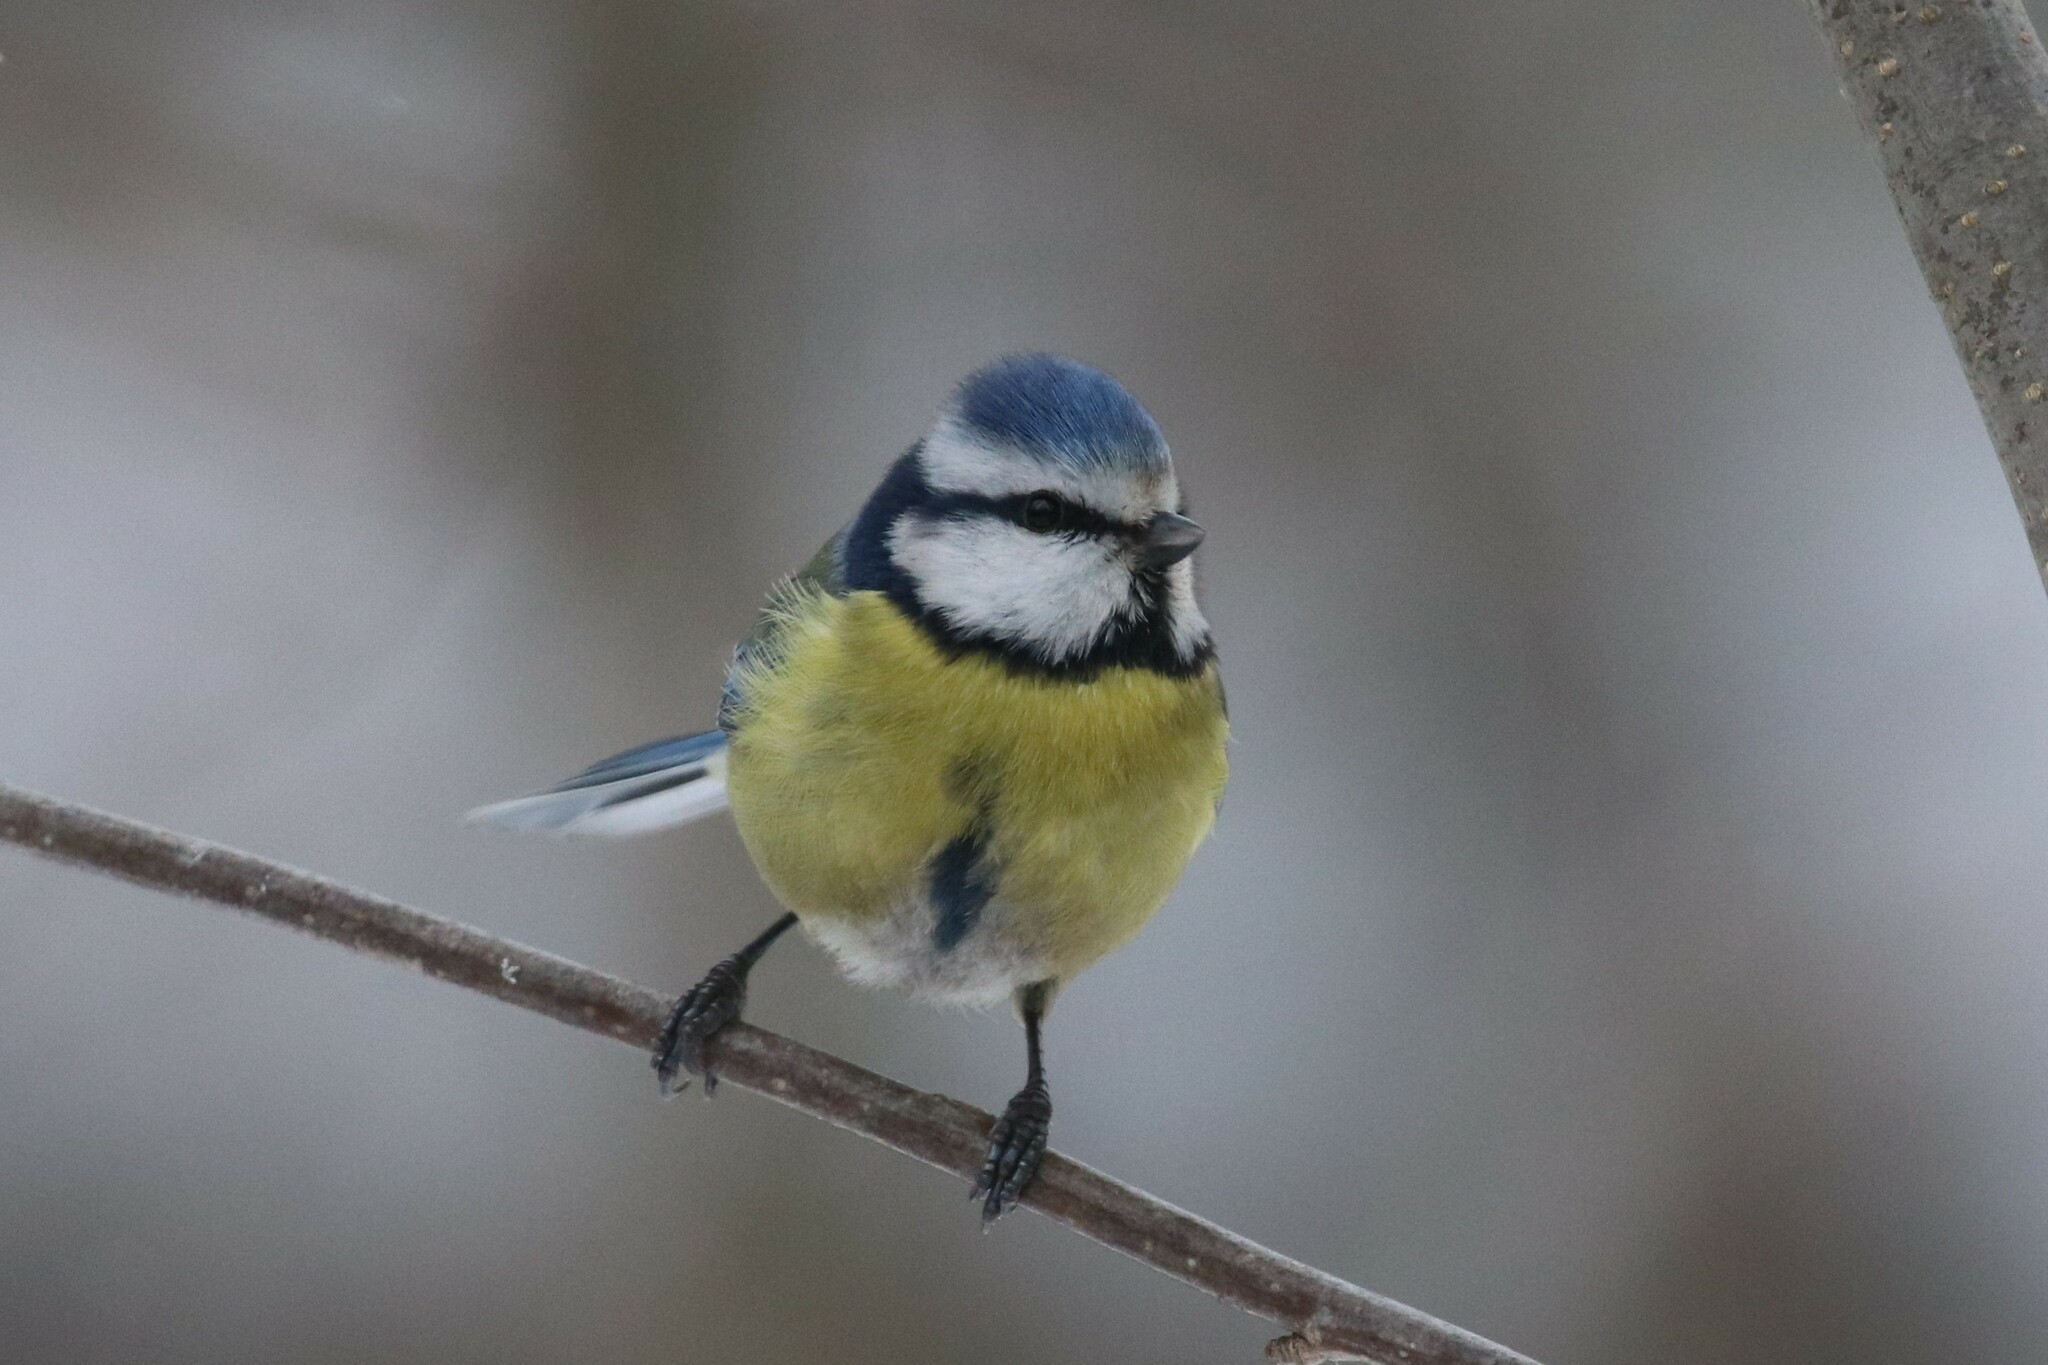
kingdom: Animalia
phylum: Chordata
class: Aves
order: Passeriformes
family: Paridae
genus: Cyanistes
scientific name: Cyanistes caeruleus
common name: Eurasian blue tit
